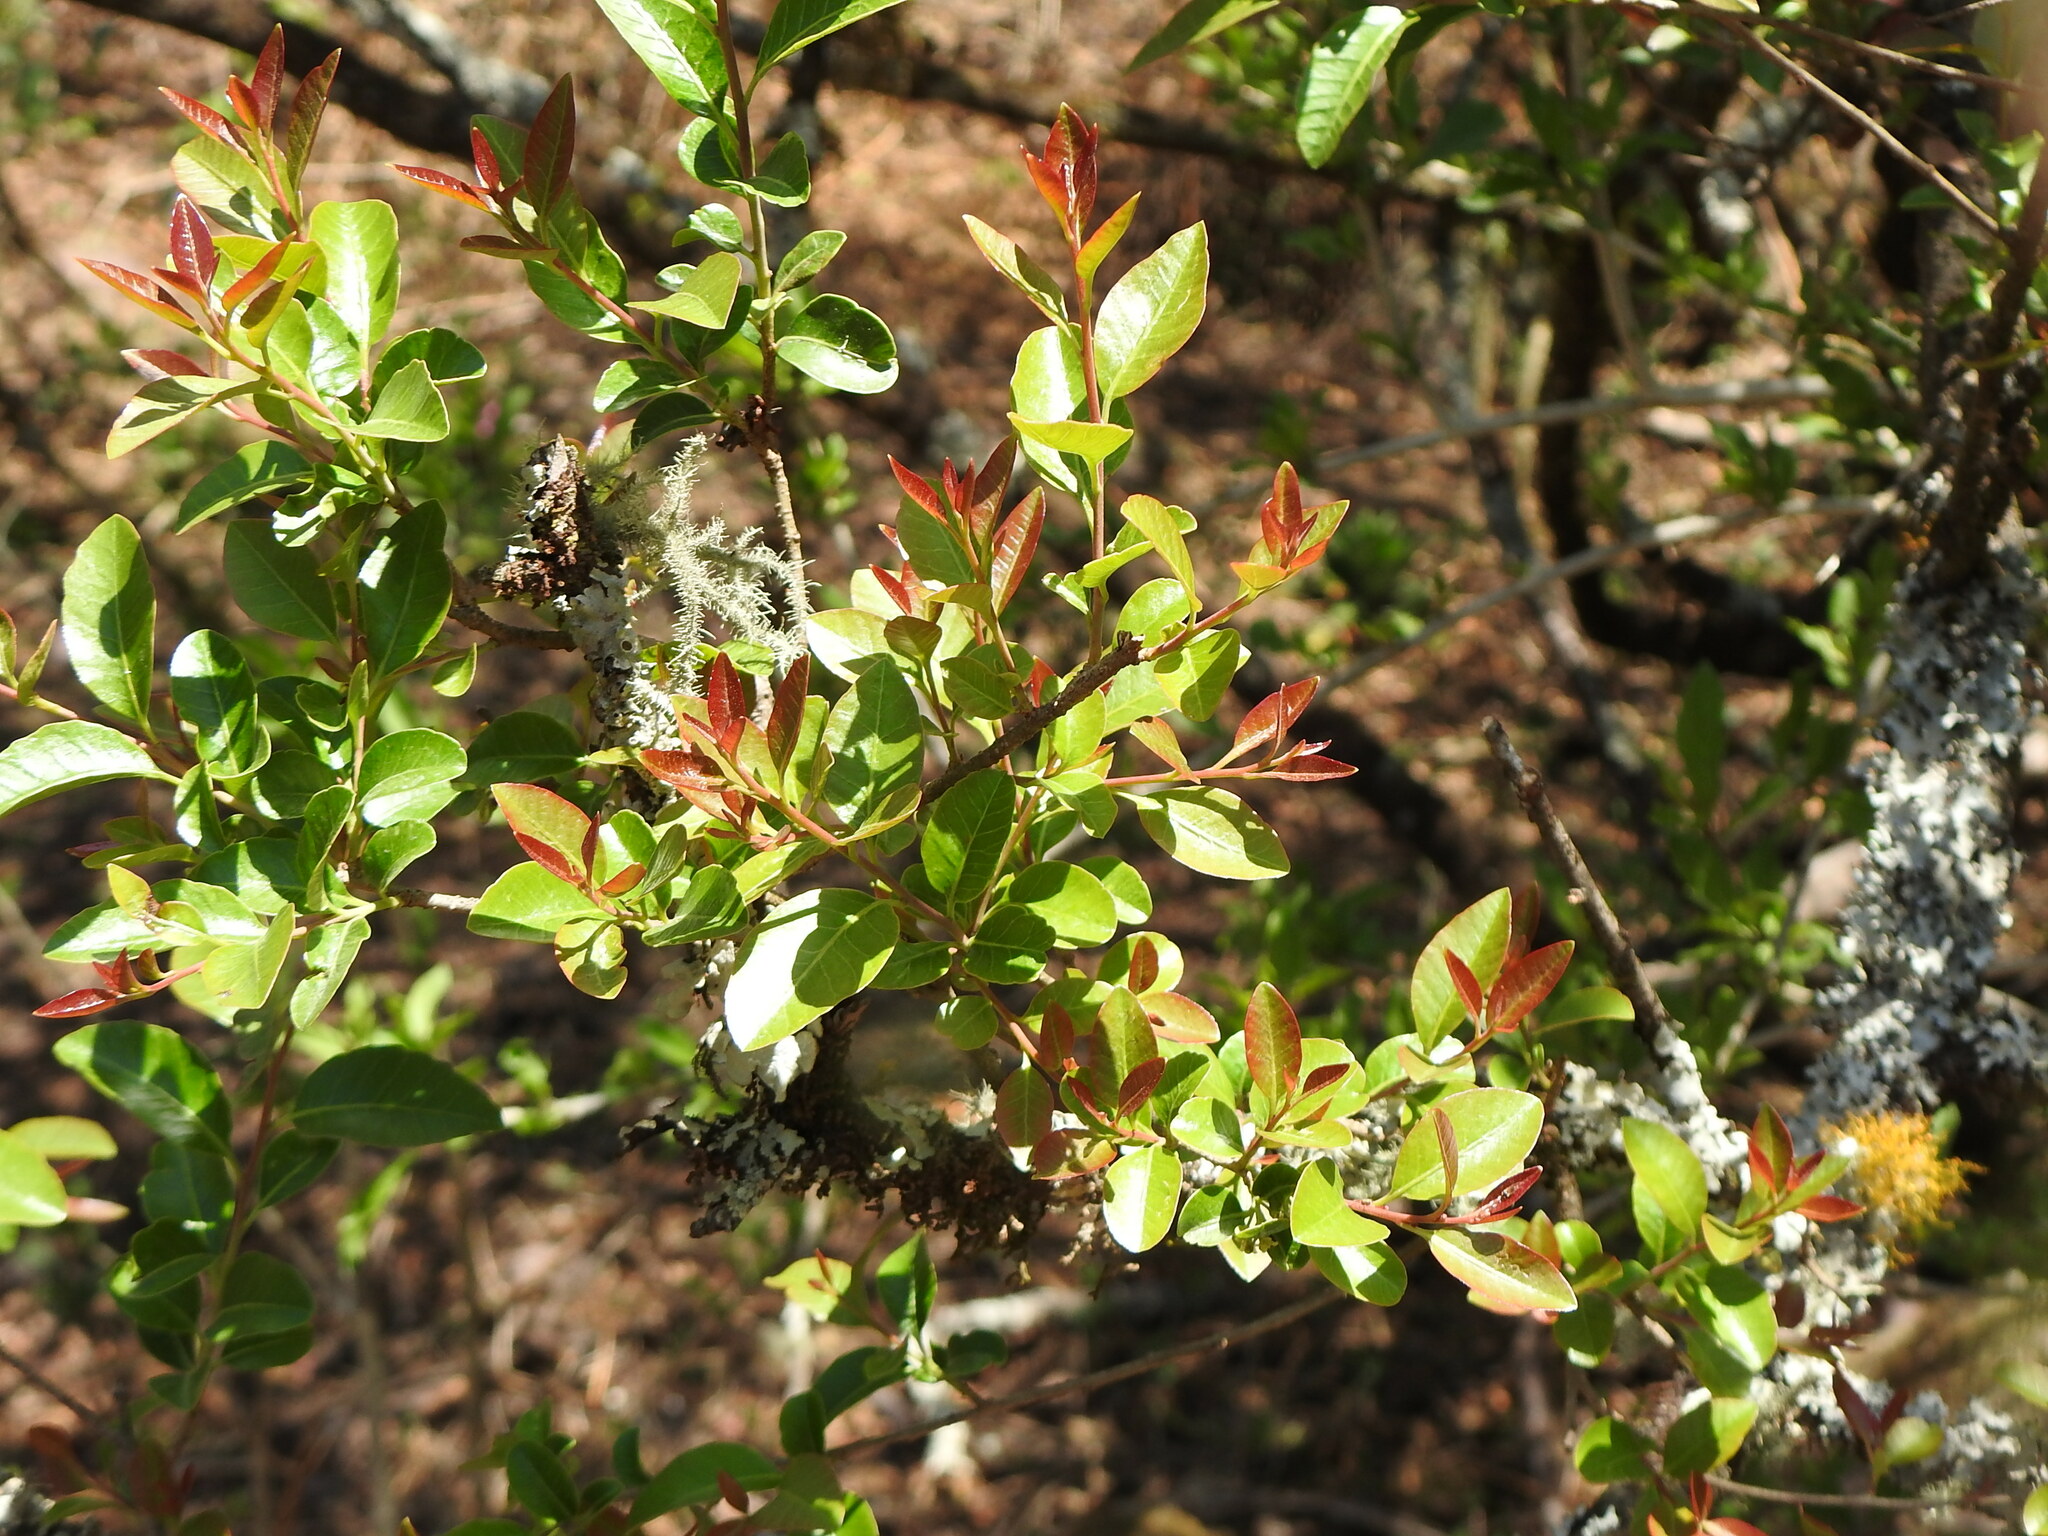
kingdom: Plantae
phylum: Tracheophyta
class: Magnoliopsida
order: Sapindales
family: Anacardiaceae
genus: Schinus
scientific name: Schinus myrtifolia
